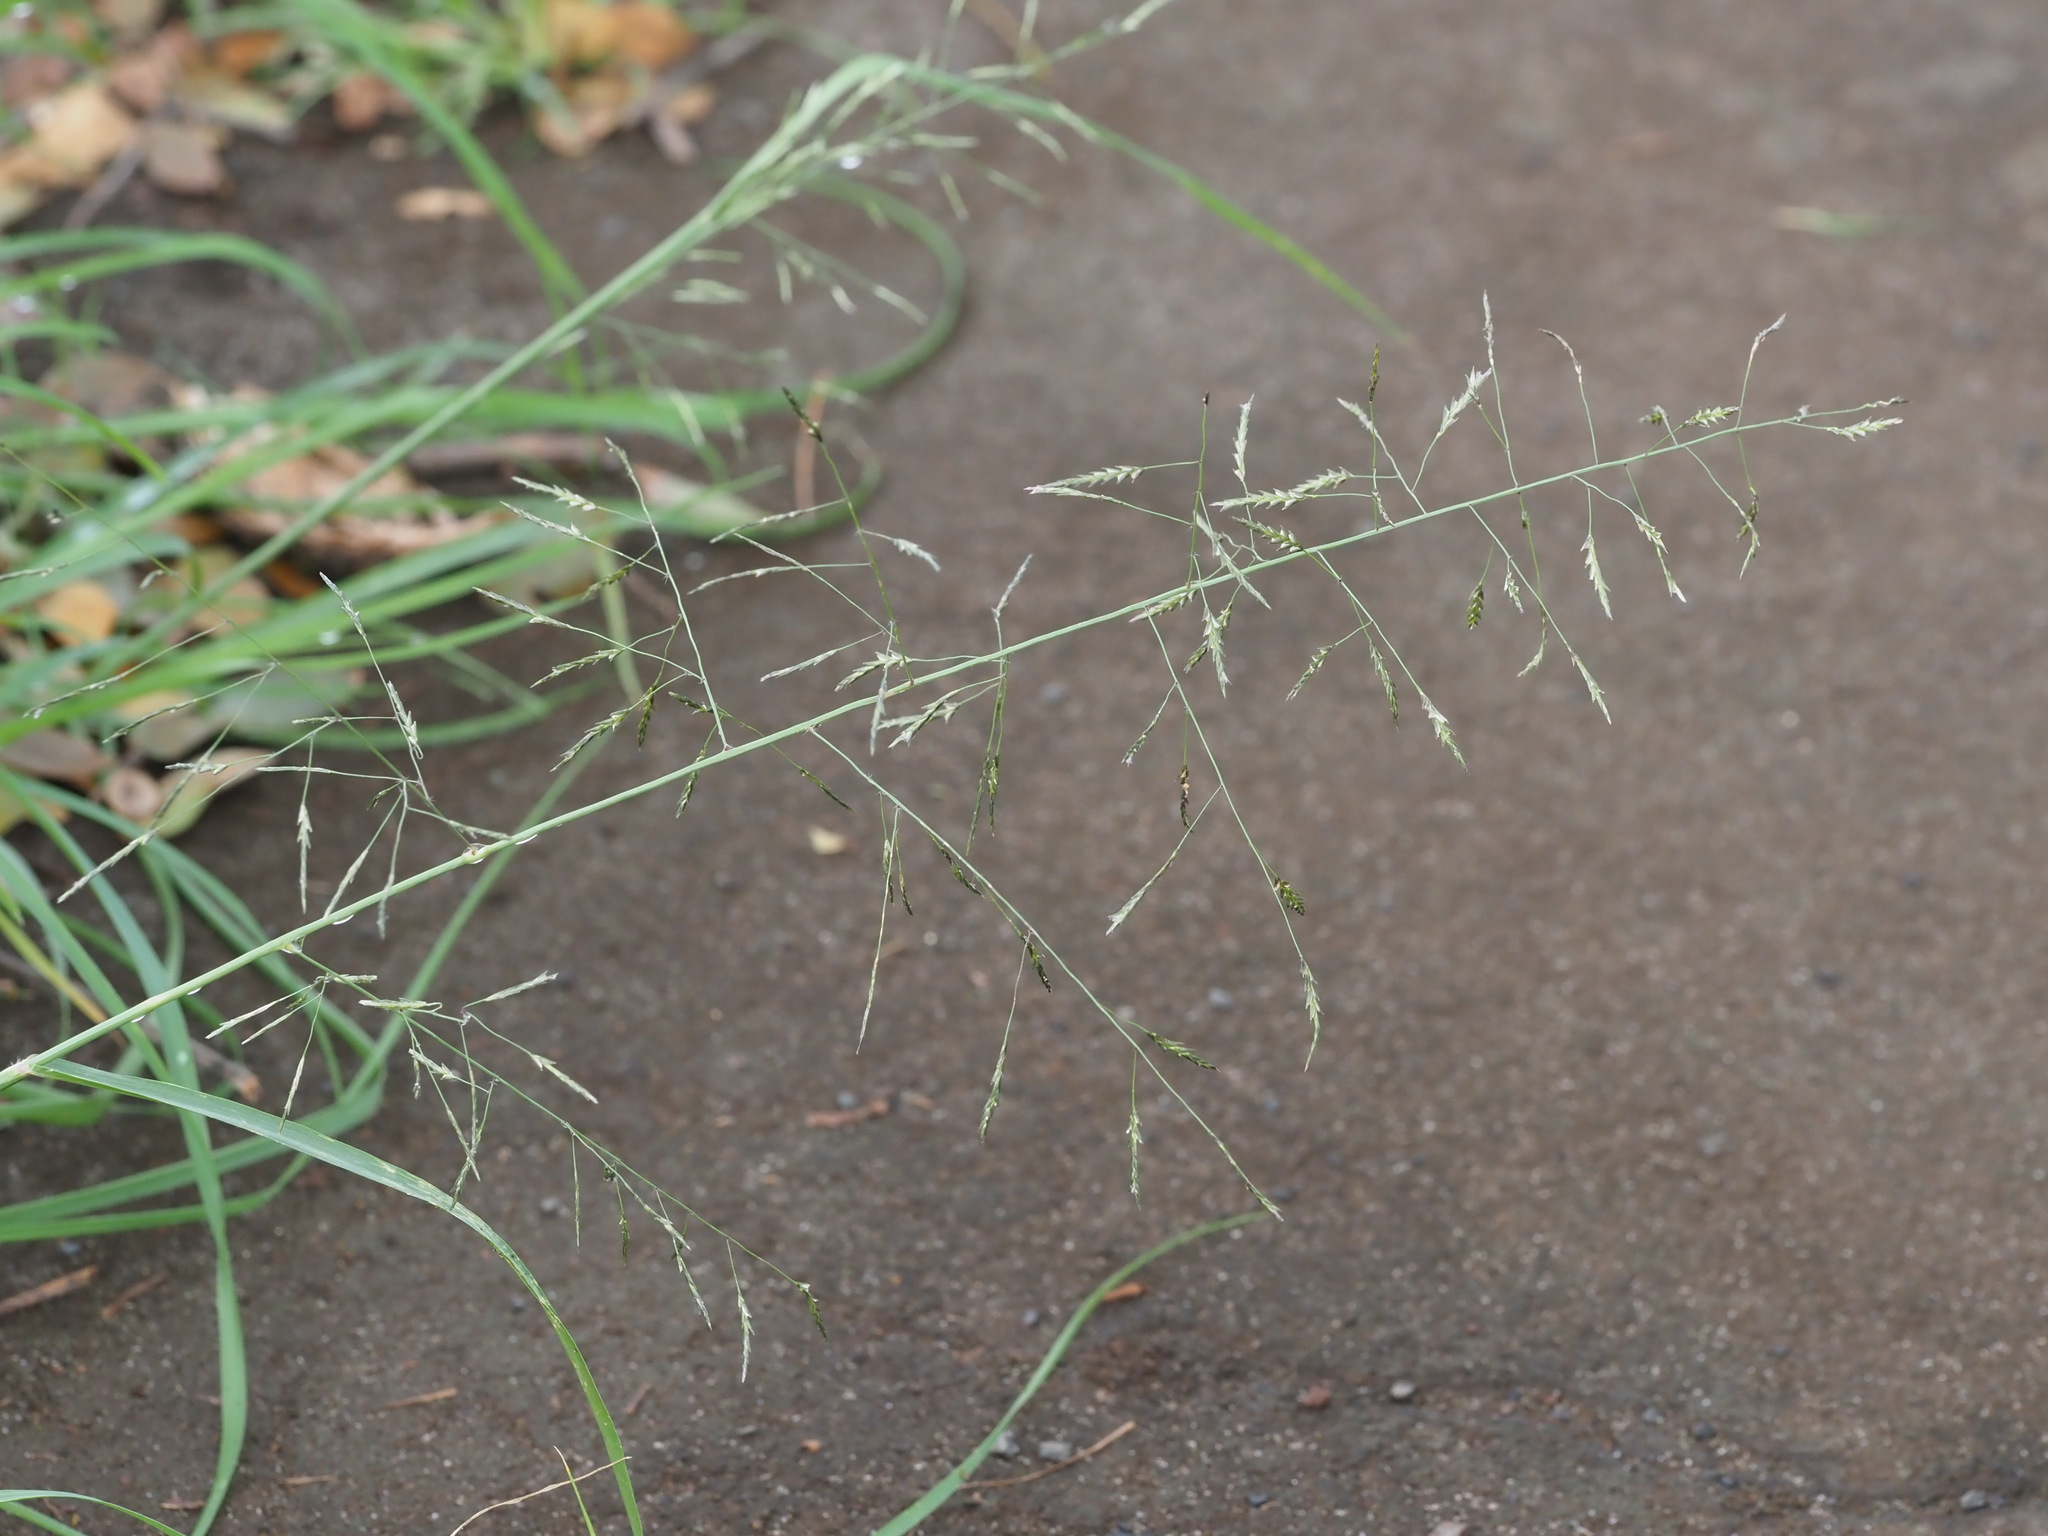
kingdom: Plantae
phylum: Tracheophyta
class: Liliopsida
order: Poales
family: Poaceae
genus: Eragrostis
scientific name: Eragrostis tenuifolia
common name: Elastic grass
